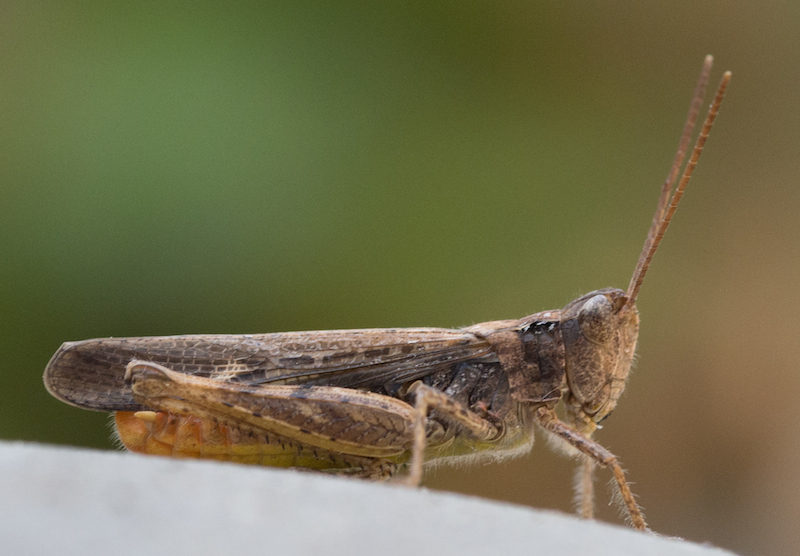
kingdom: Animalia
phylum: Arthropoda
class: Insecta
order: Orthoptera
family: Acrididae
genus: Chorthippus
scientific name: Chorthippus brunneus
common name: Field grasshopper
